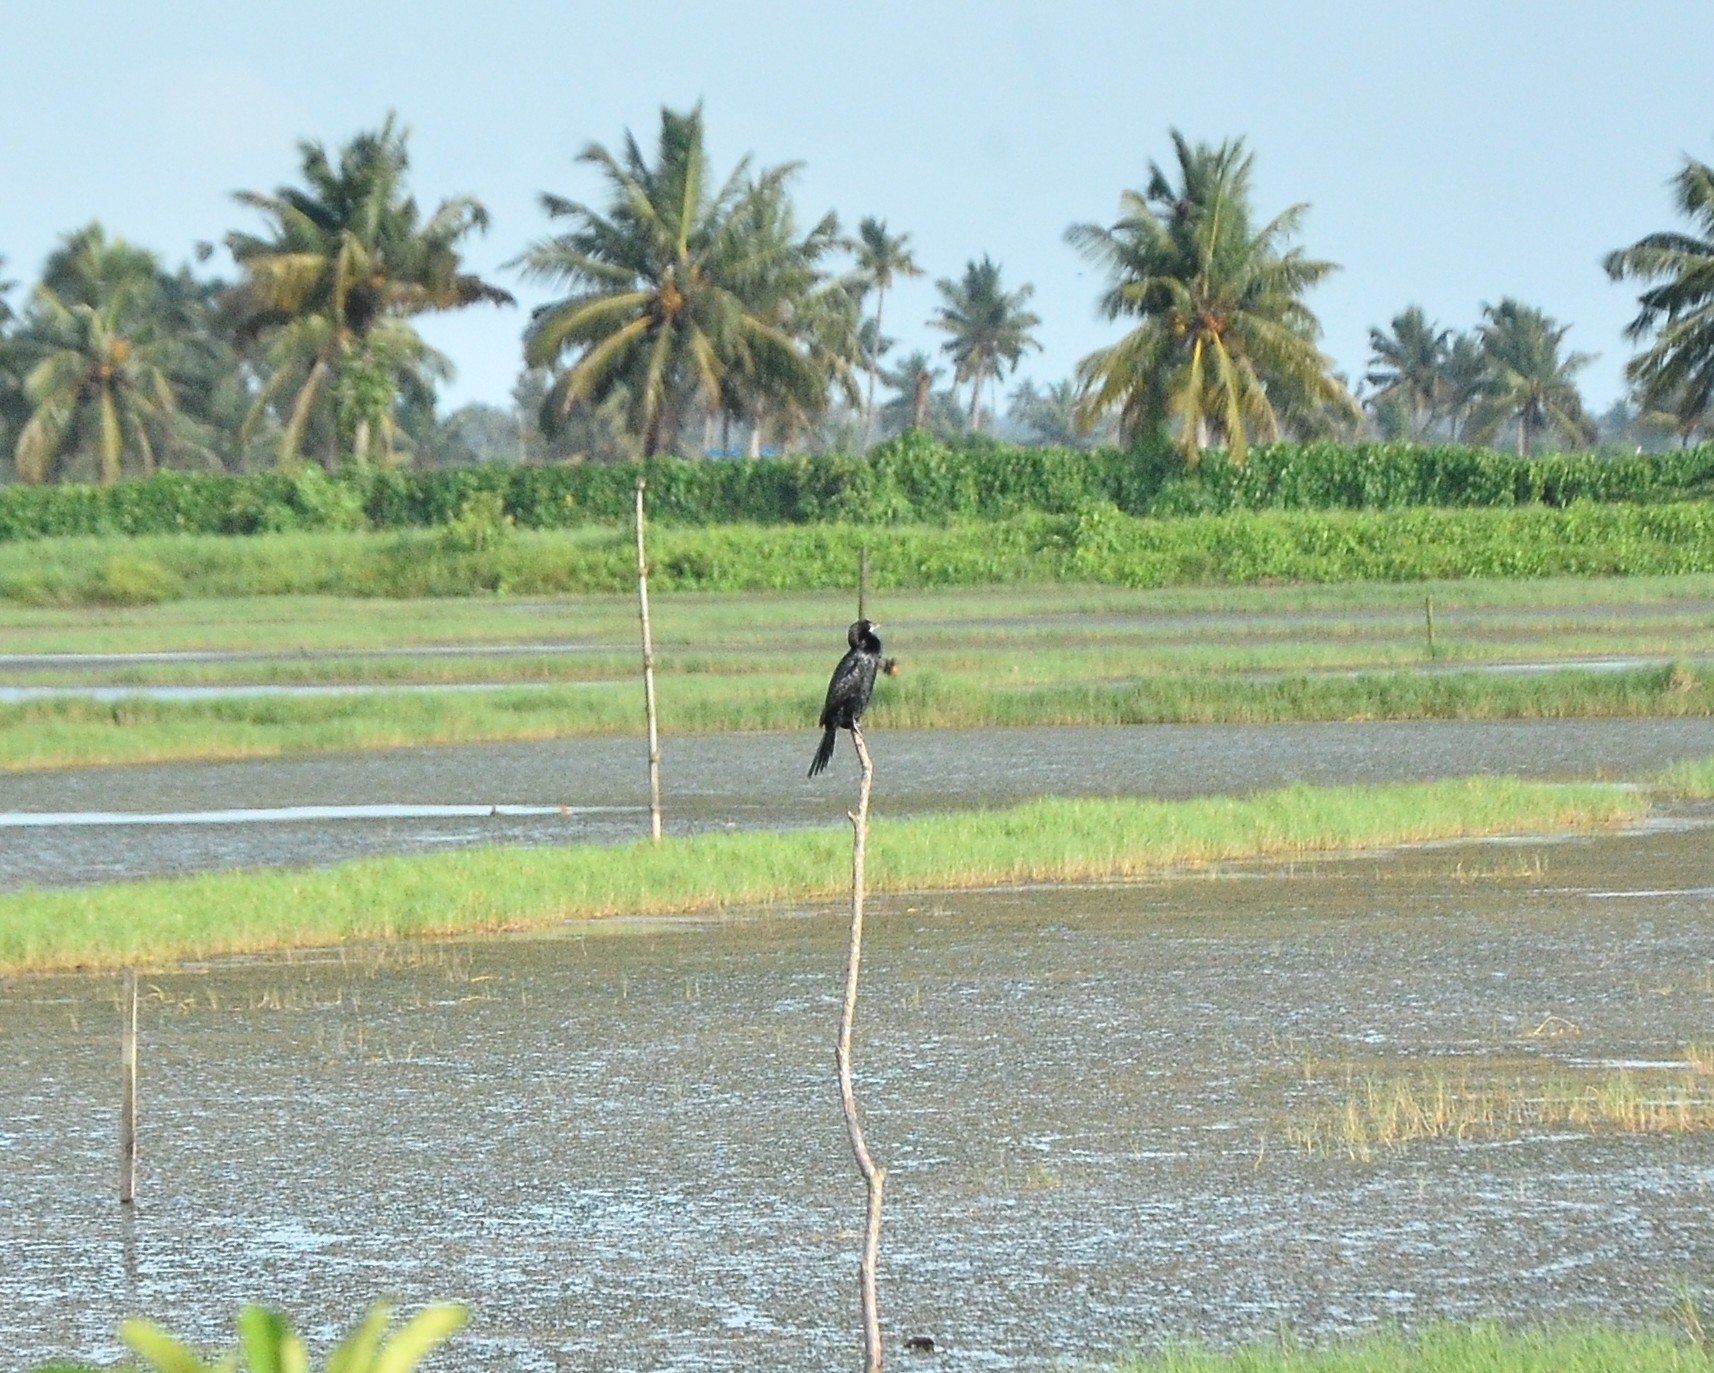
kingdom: Animalia
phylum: Chordata
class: Aves
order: Suliformes
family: Phalacrocoracidae
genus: Microcarbo
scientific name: Microcarbo niger
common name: Little cormorant
